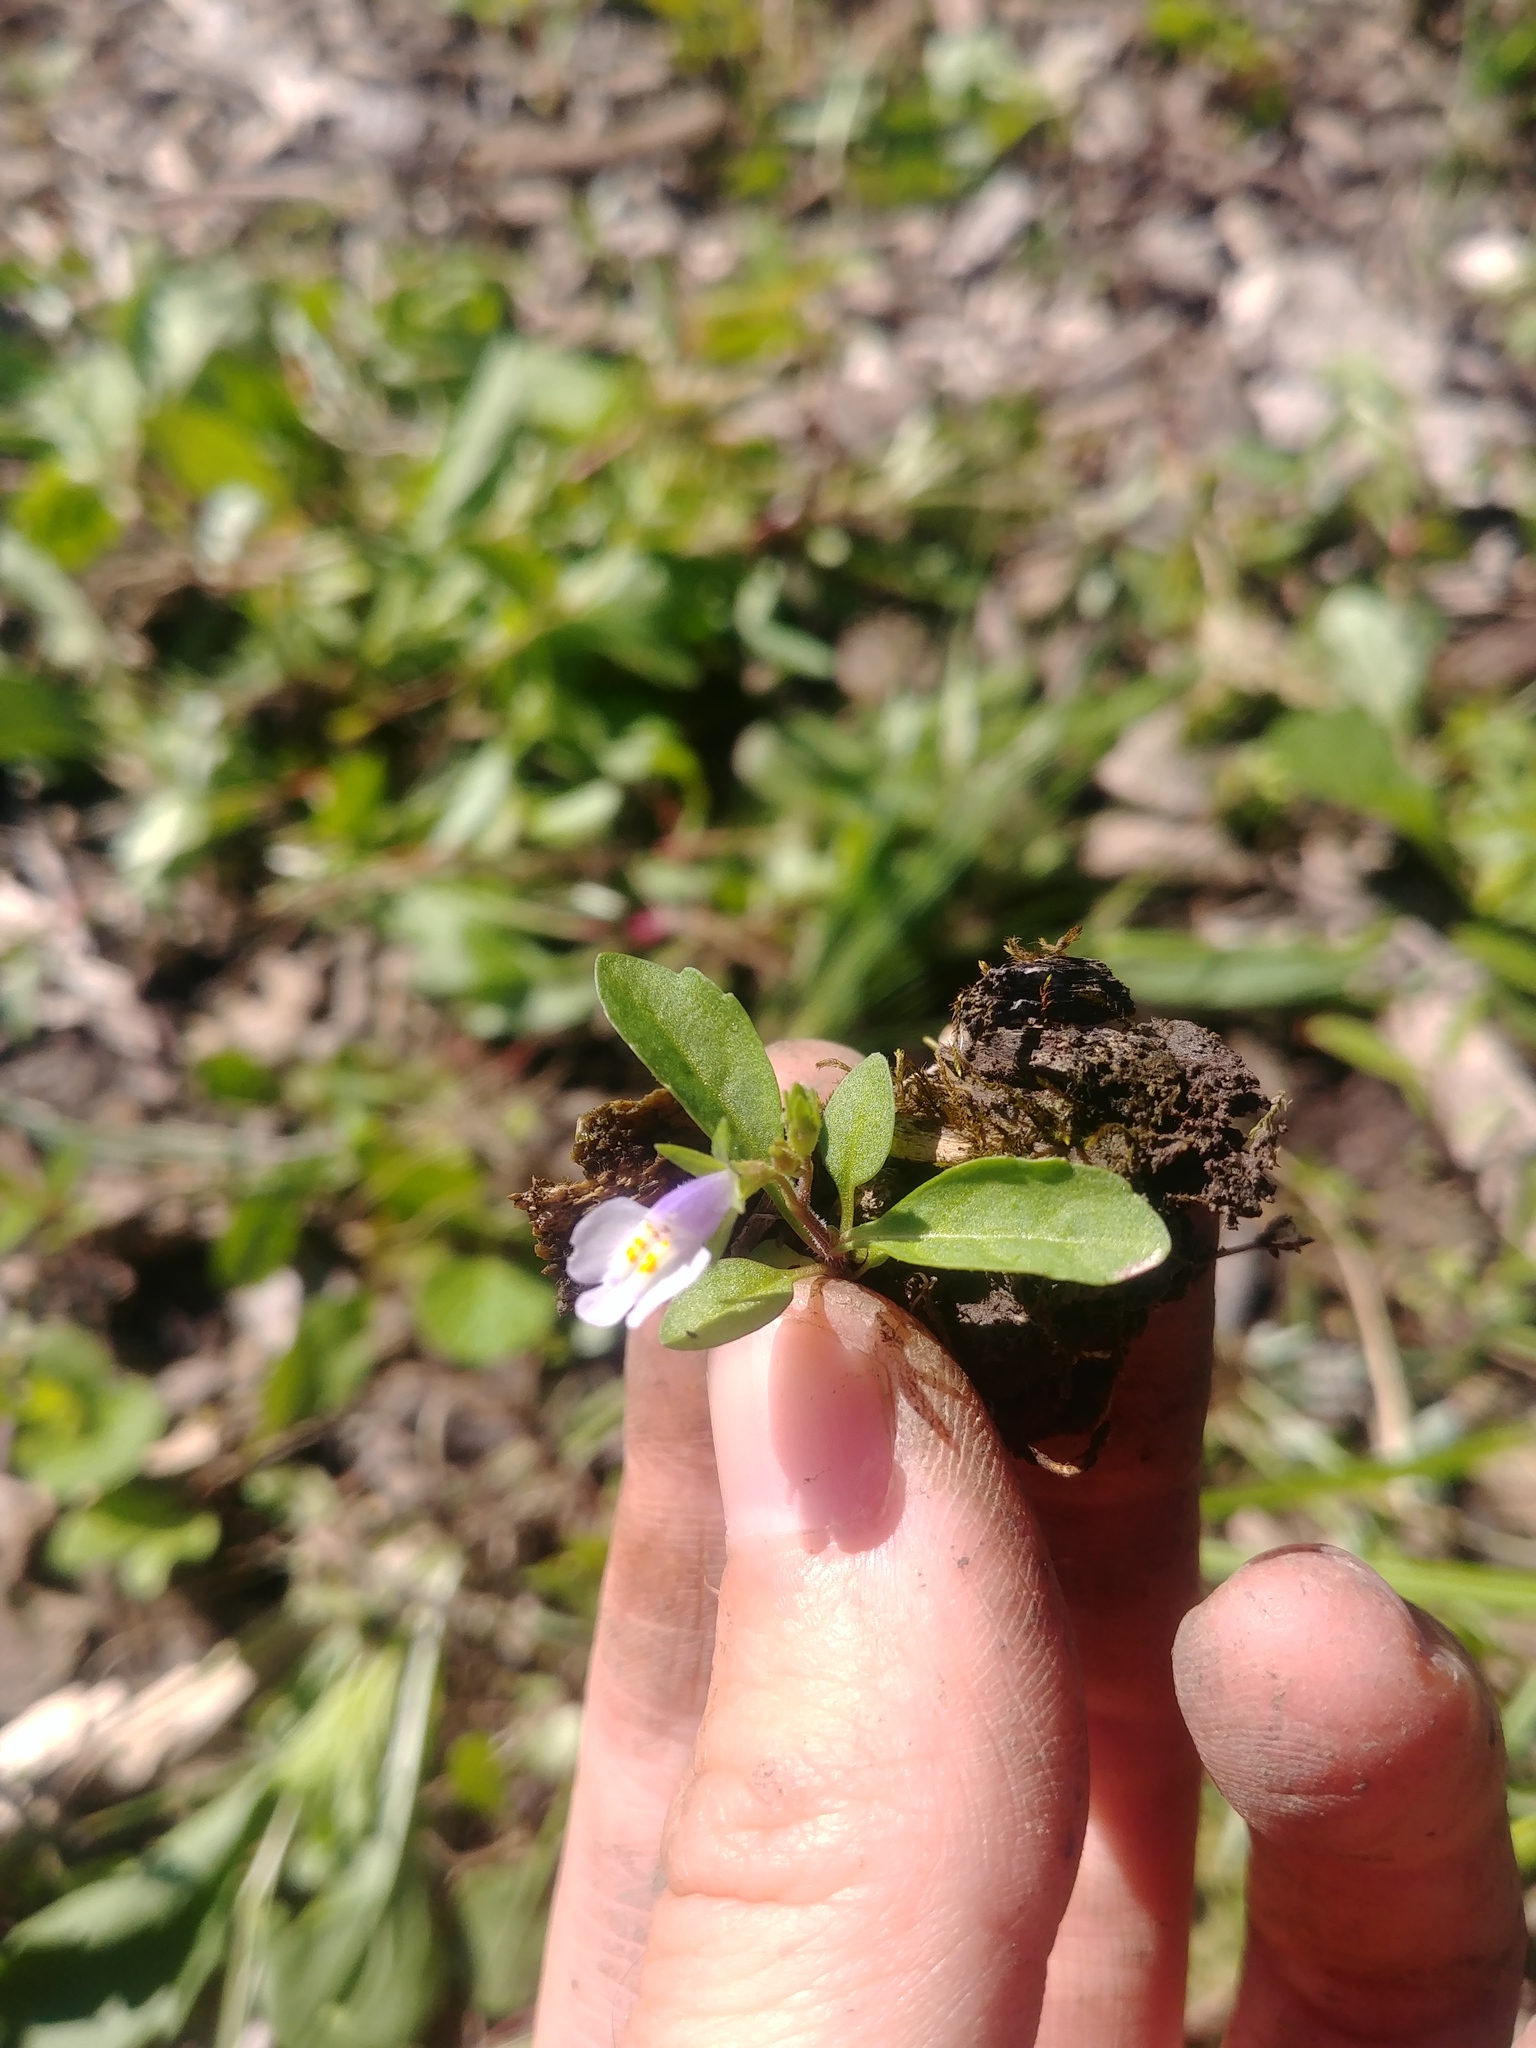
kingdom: Plantae
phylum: Tracheophyta
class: Magnoliopsida
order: Lamiales
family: Mazaceae
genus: Mazus
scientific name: Mazus pumilus
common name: Japanese mazus
